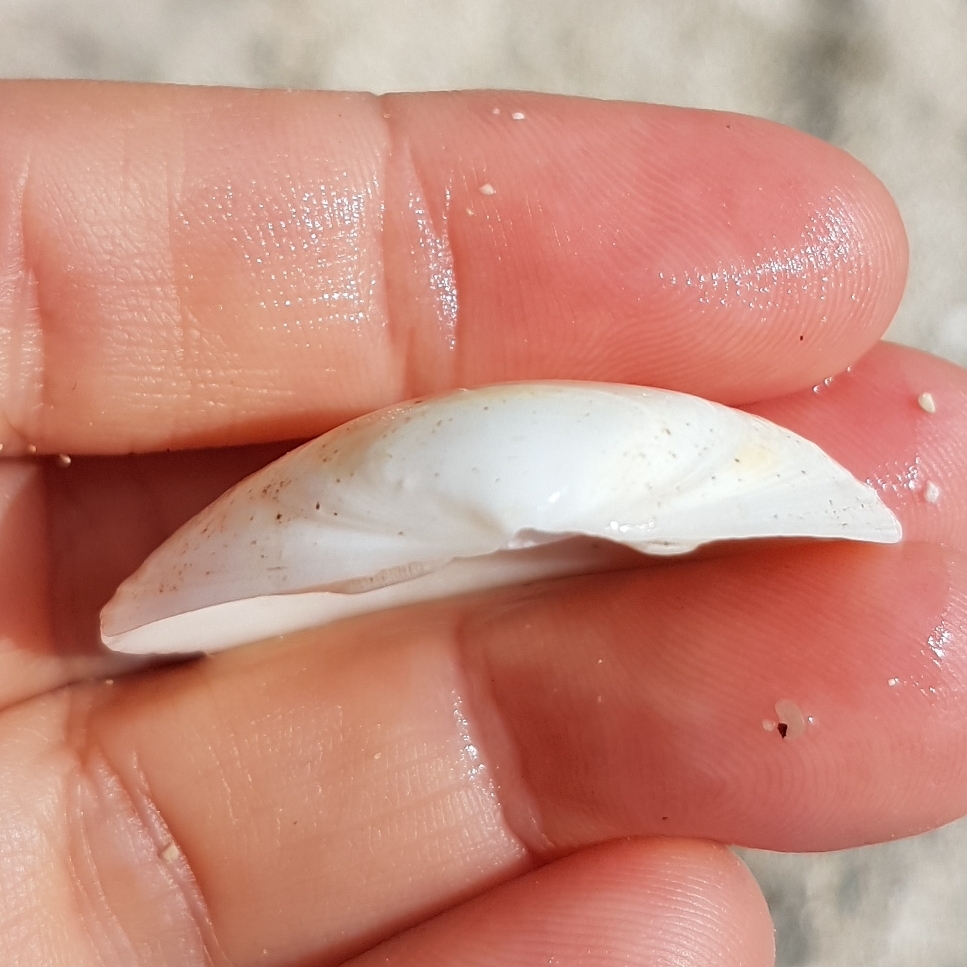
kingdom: Animalia
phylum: Mollusca
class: Bivalvia
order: Venerida
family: Mactridae
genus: Spisula
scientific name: Spisula solida
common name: Thick trough shell
